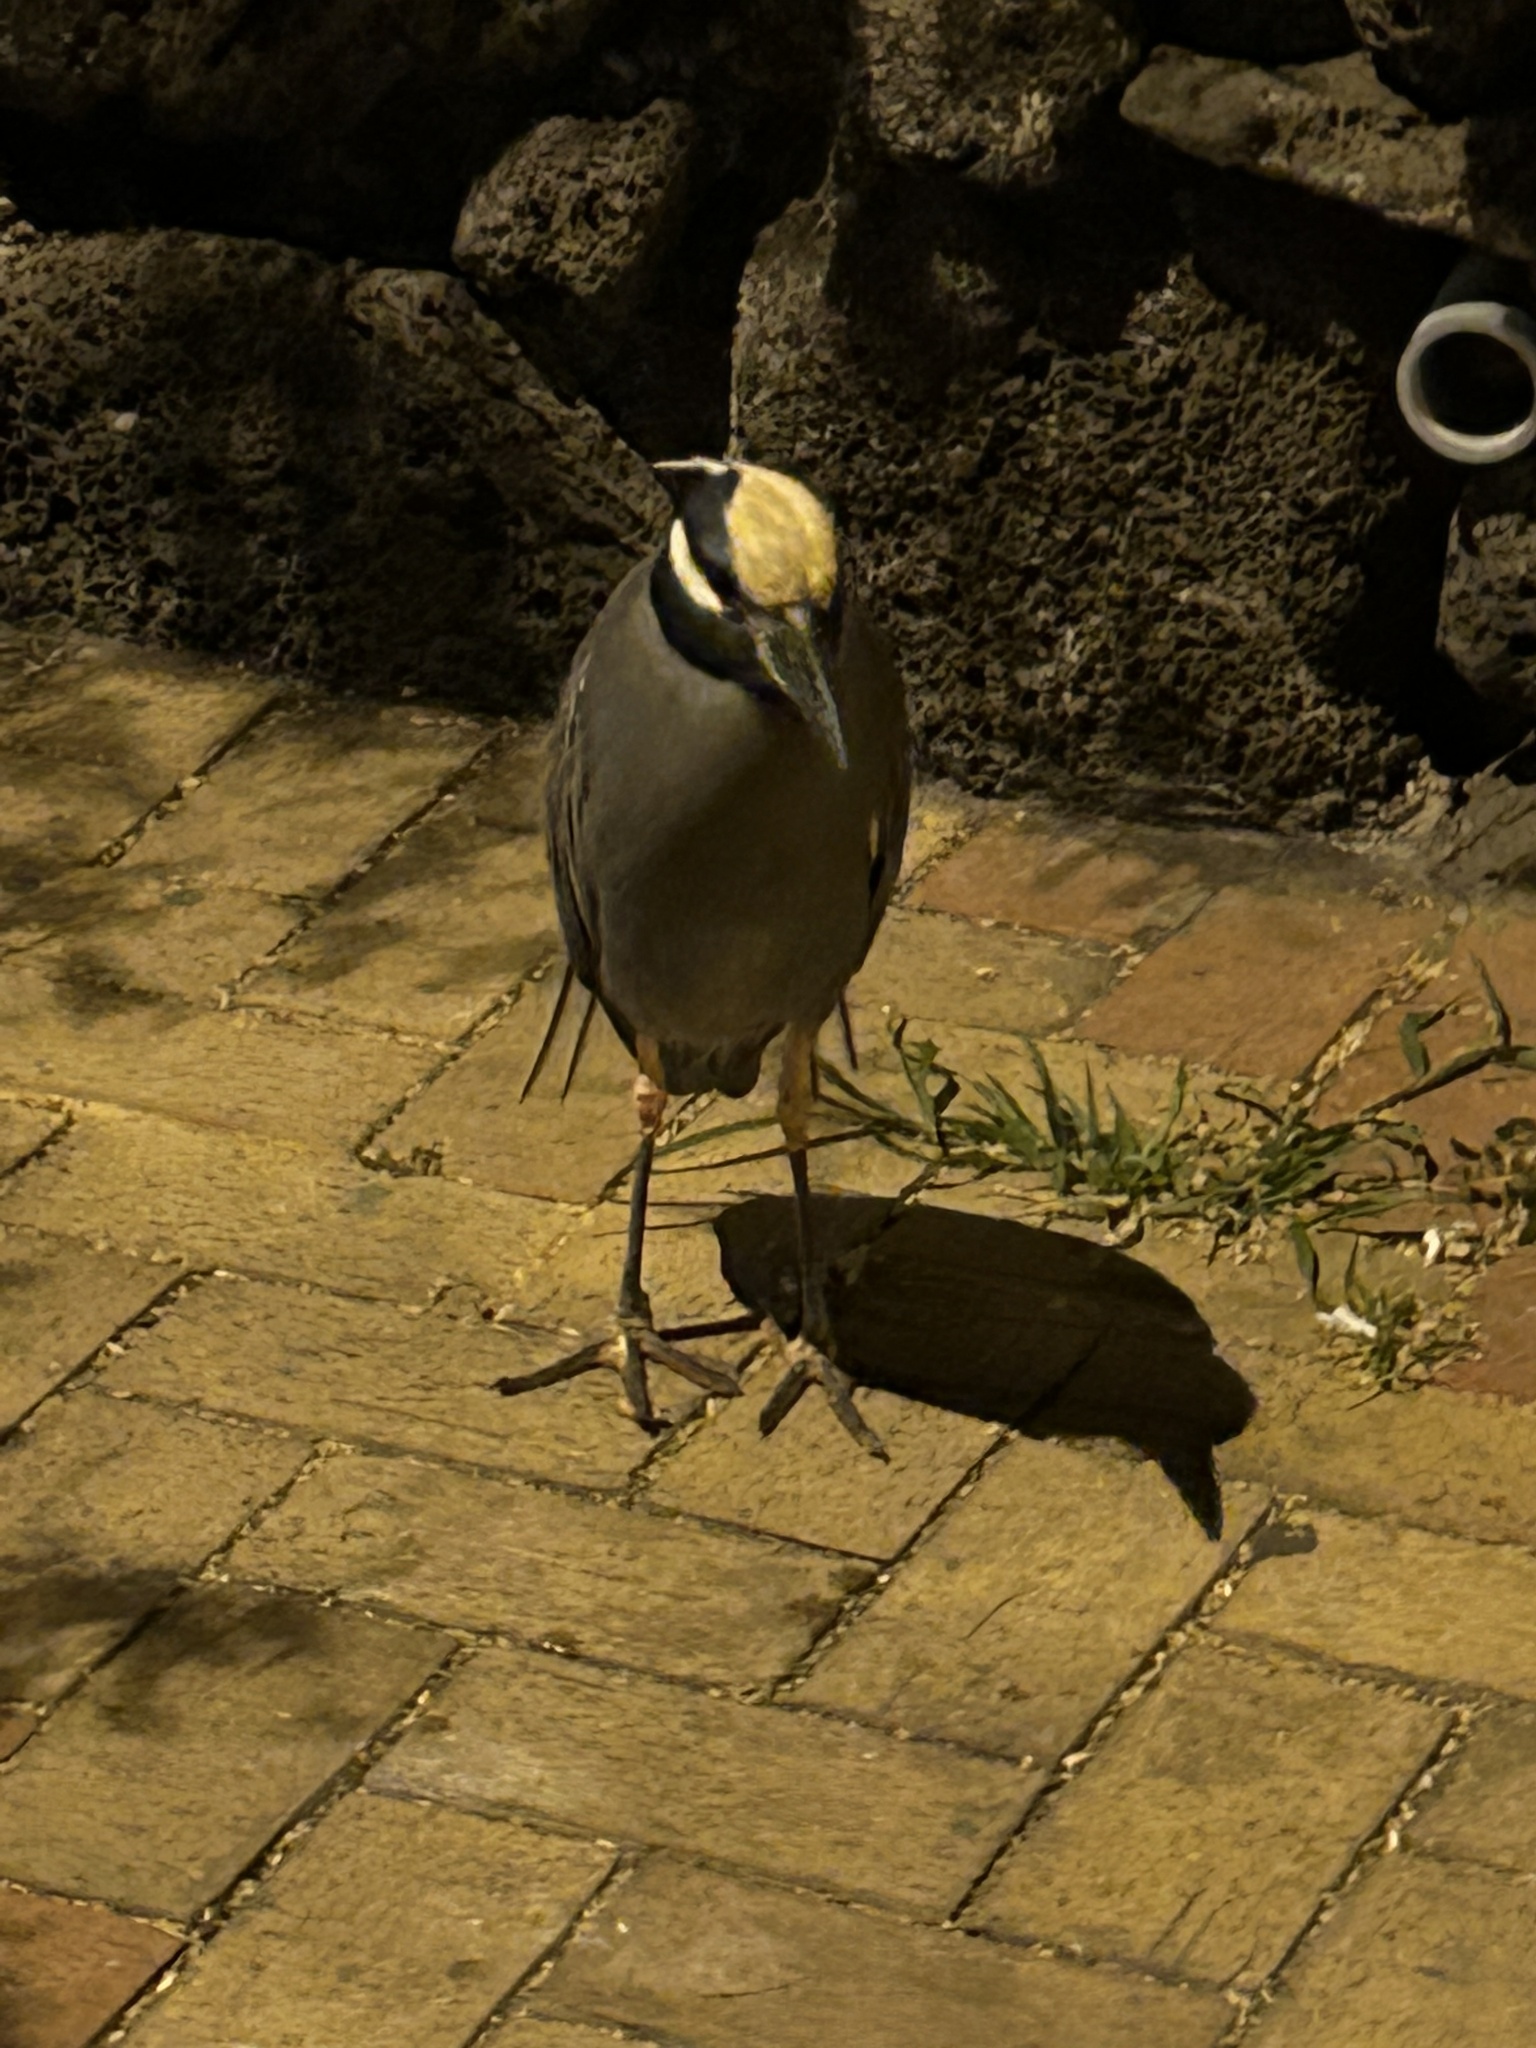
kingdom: Animalia
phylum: Chordata
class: Aves
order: Pelecaniformes
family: Ardeidae
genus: Nyctanassa
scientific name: Nyctanassa violacea
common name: Yellow-crowned night heron
